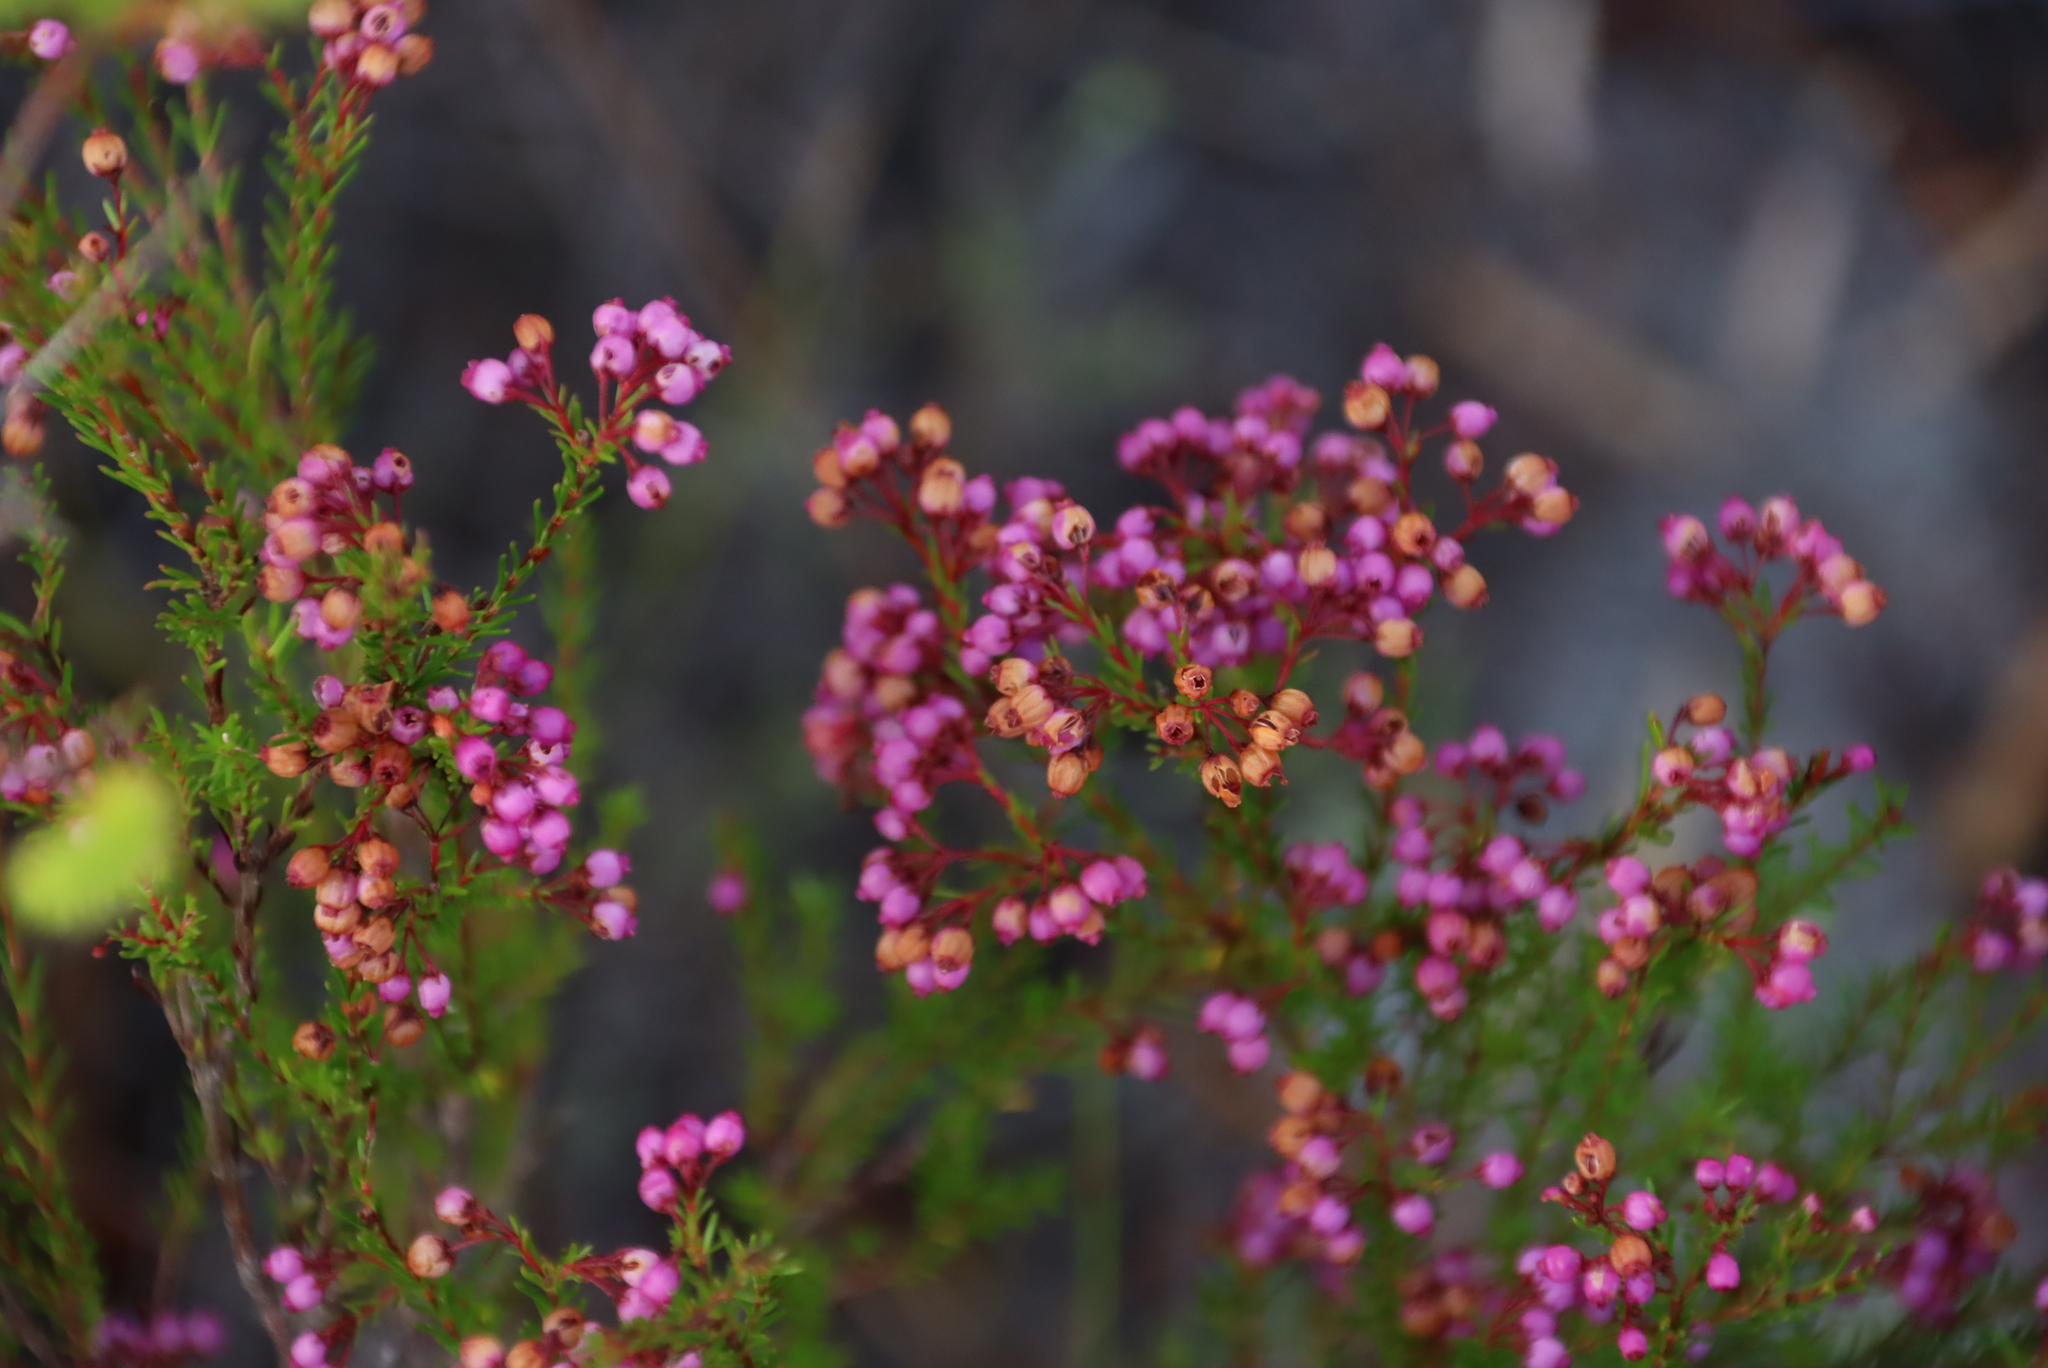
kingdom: Plantae
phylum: Tracheophyta
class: Magnoliopsida
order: Ericales
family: Ericaceae
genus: Erica
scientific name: Erica multumbellifera
